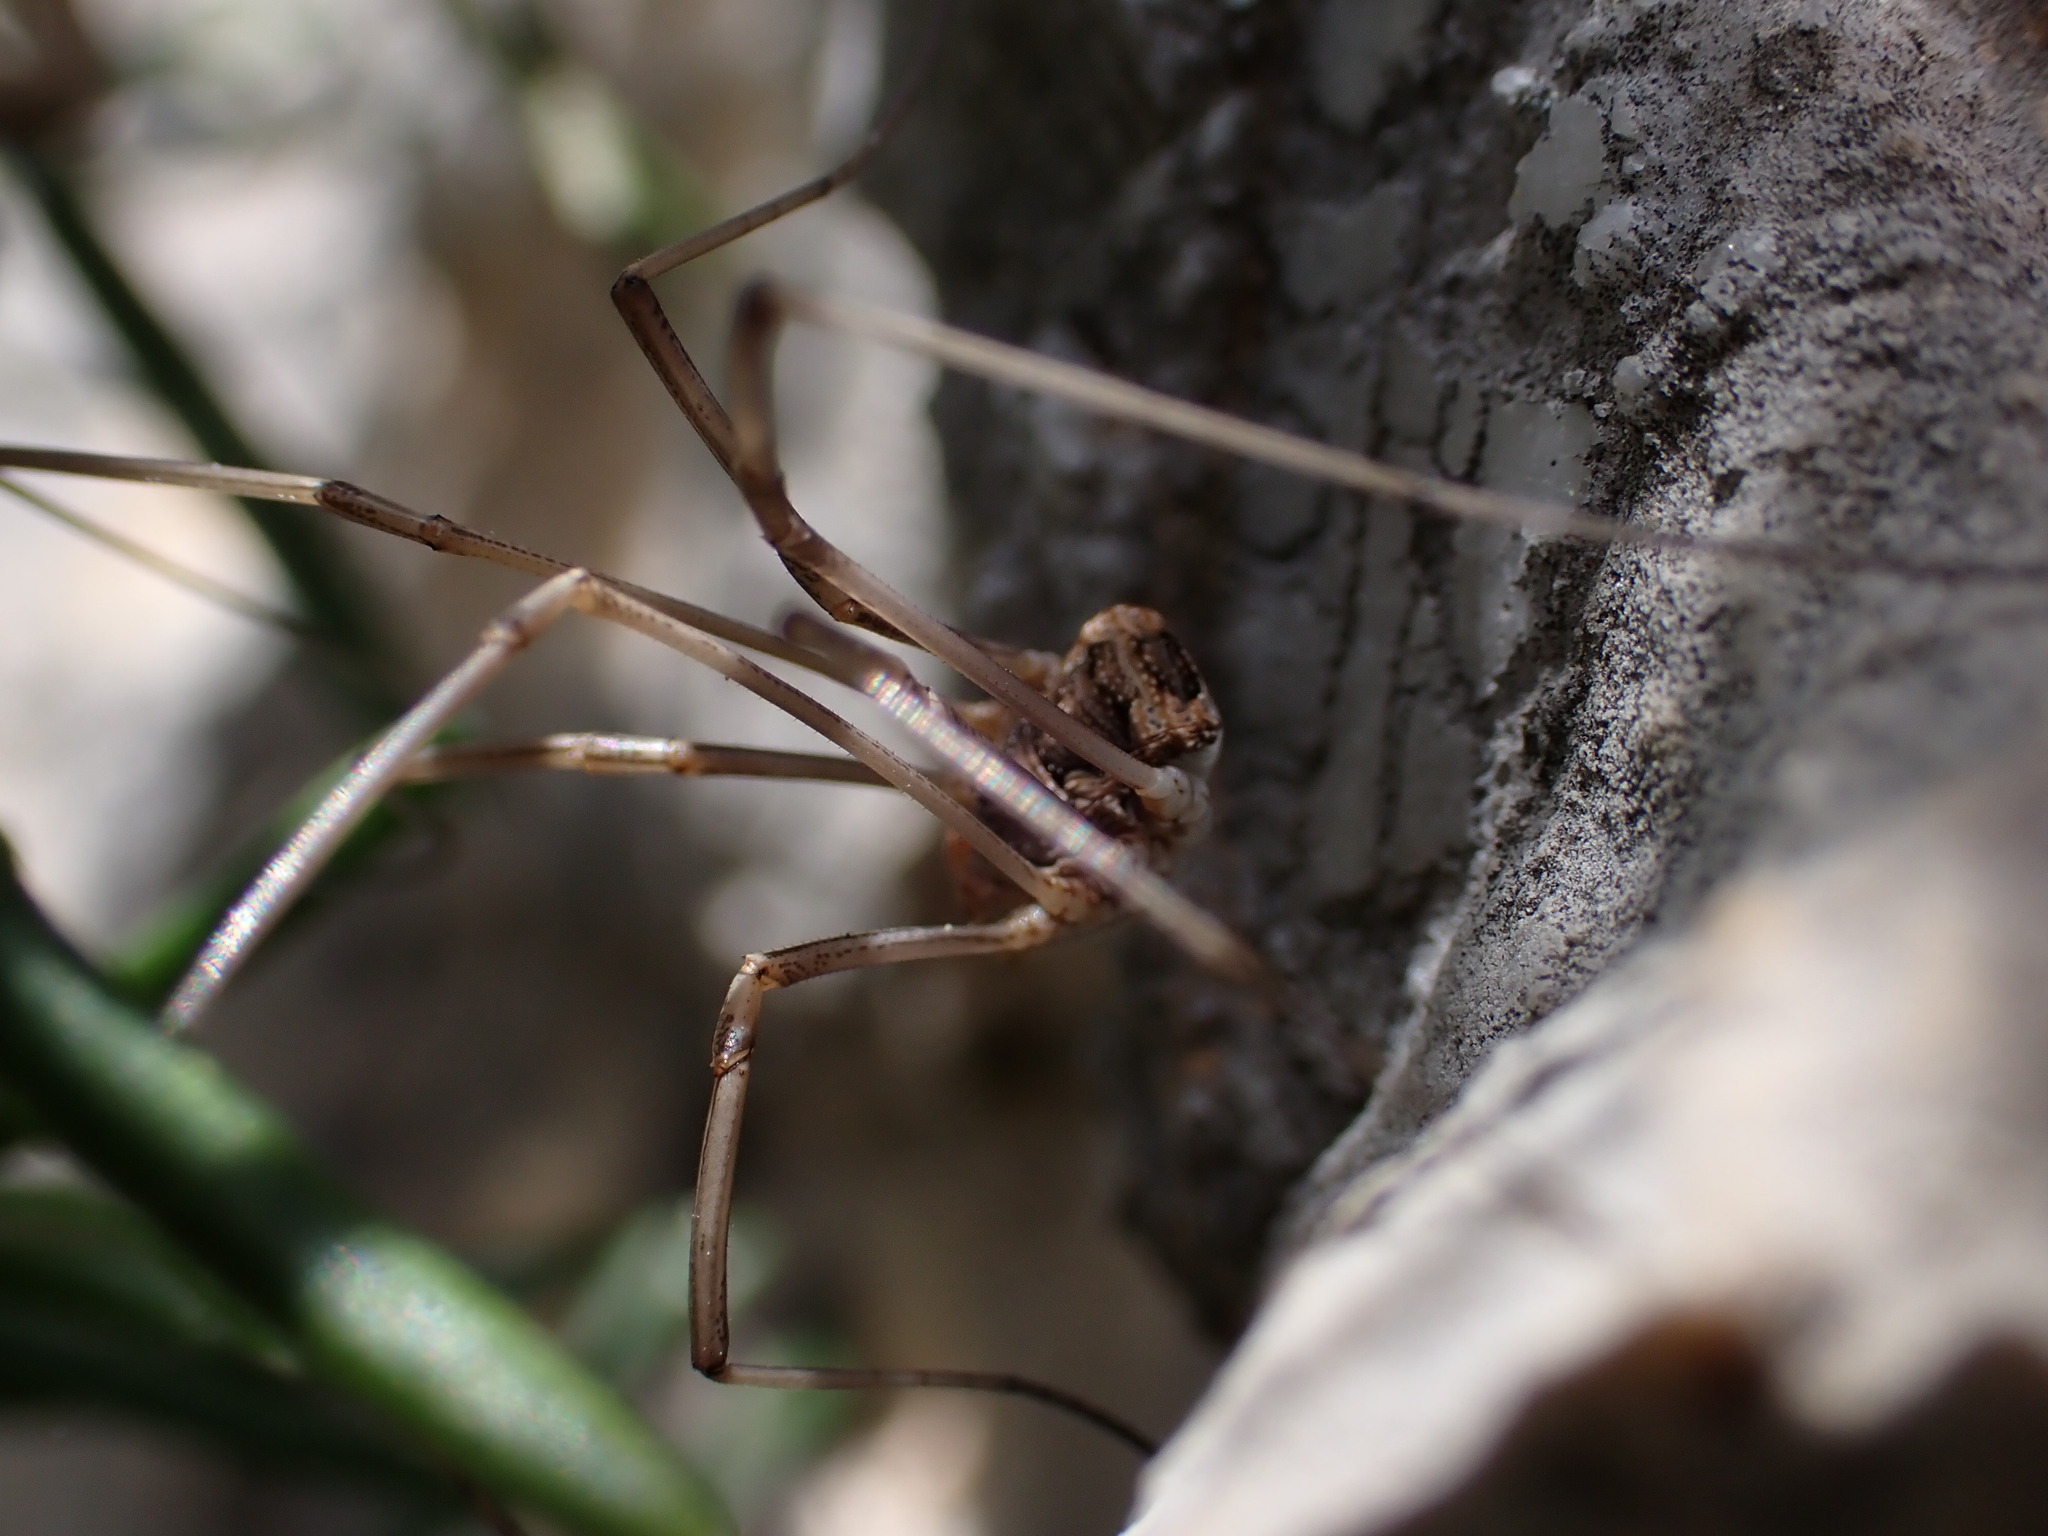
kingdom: Animalia
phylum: Arthropoda
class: Arachnida
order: Opiliones
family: Phalangiidae
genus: Phalangium
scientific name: Phalangium opilio
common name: Daddy longleg
